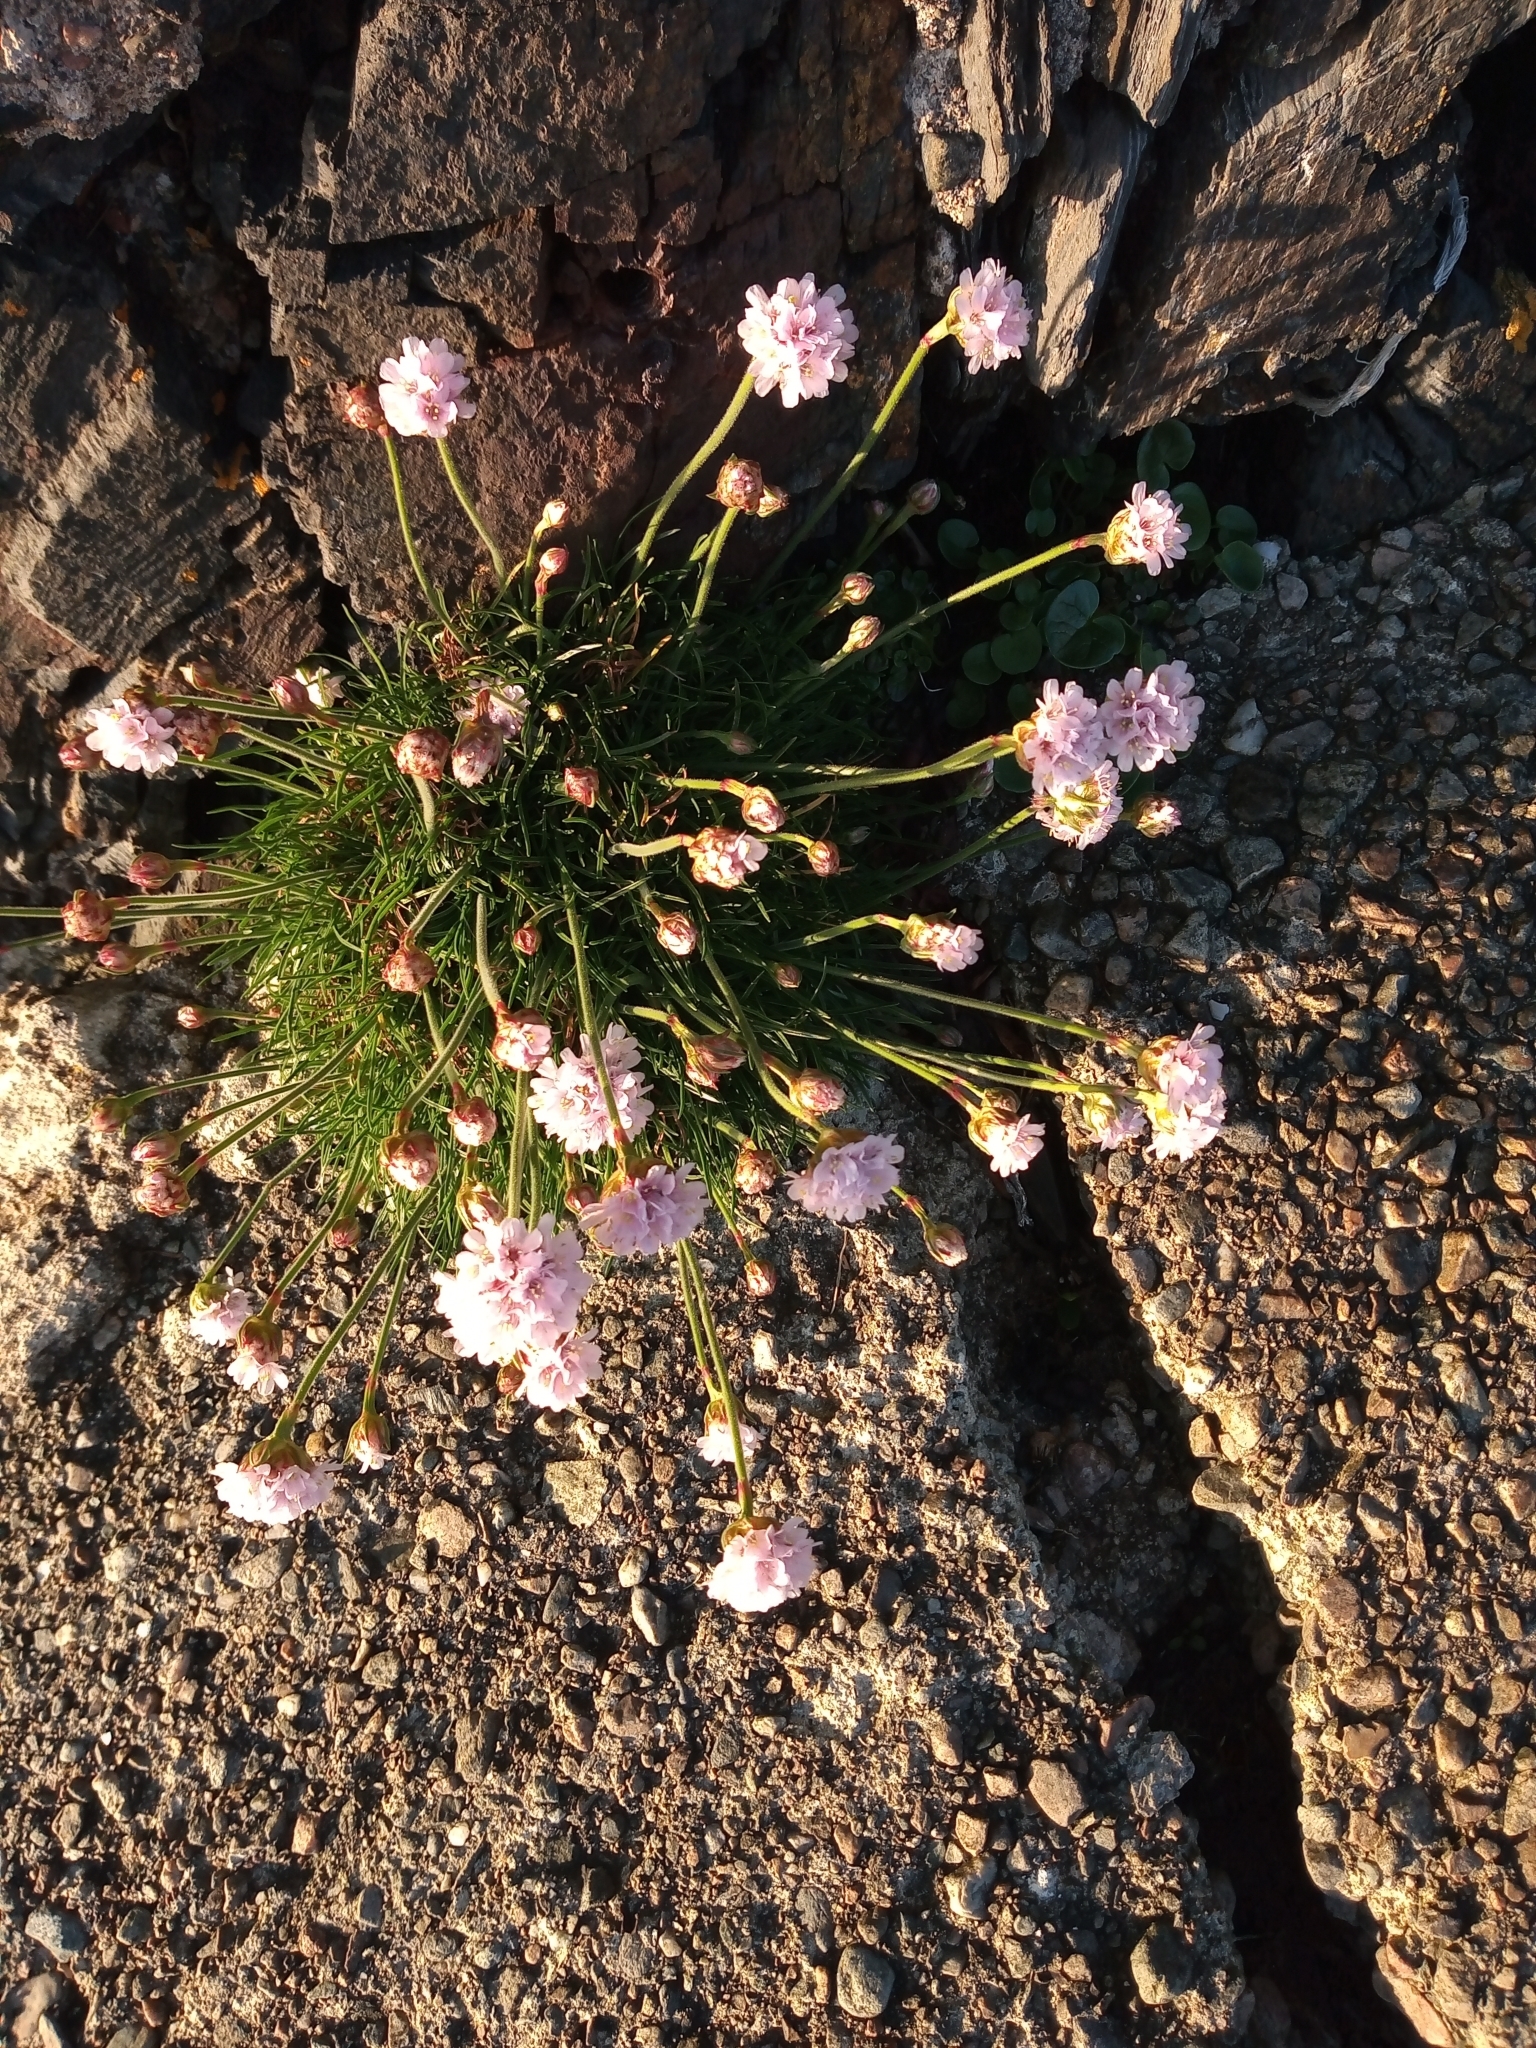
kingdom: Plantae
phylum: Tracheophyta
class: Magnoliopsida
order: Caryophyllales
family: Plumbaginaceae
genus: Armeria
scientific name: Armeria maritima
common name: Thrift
